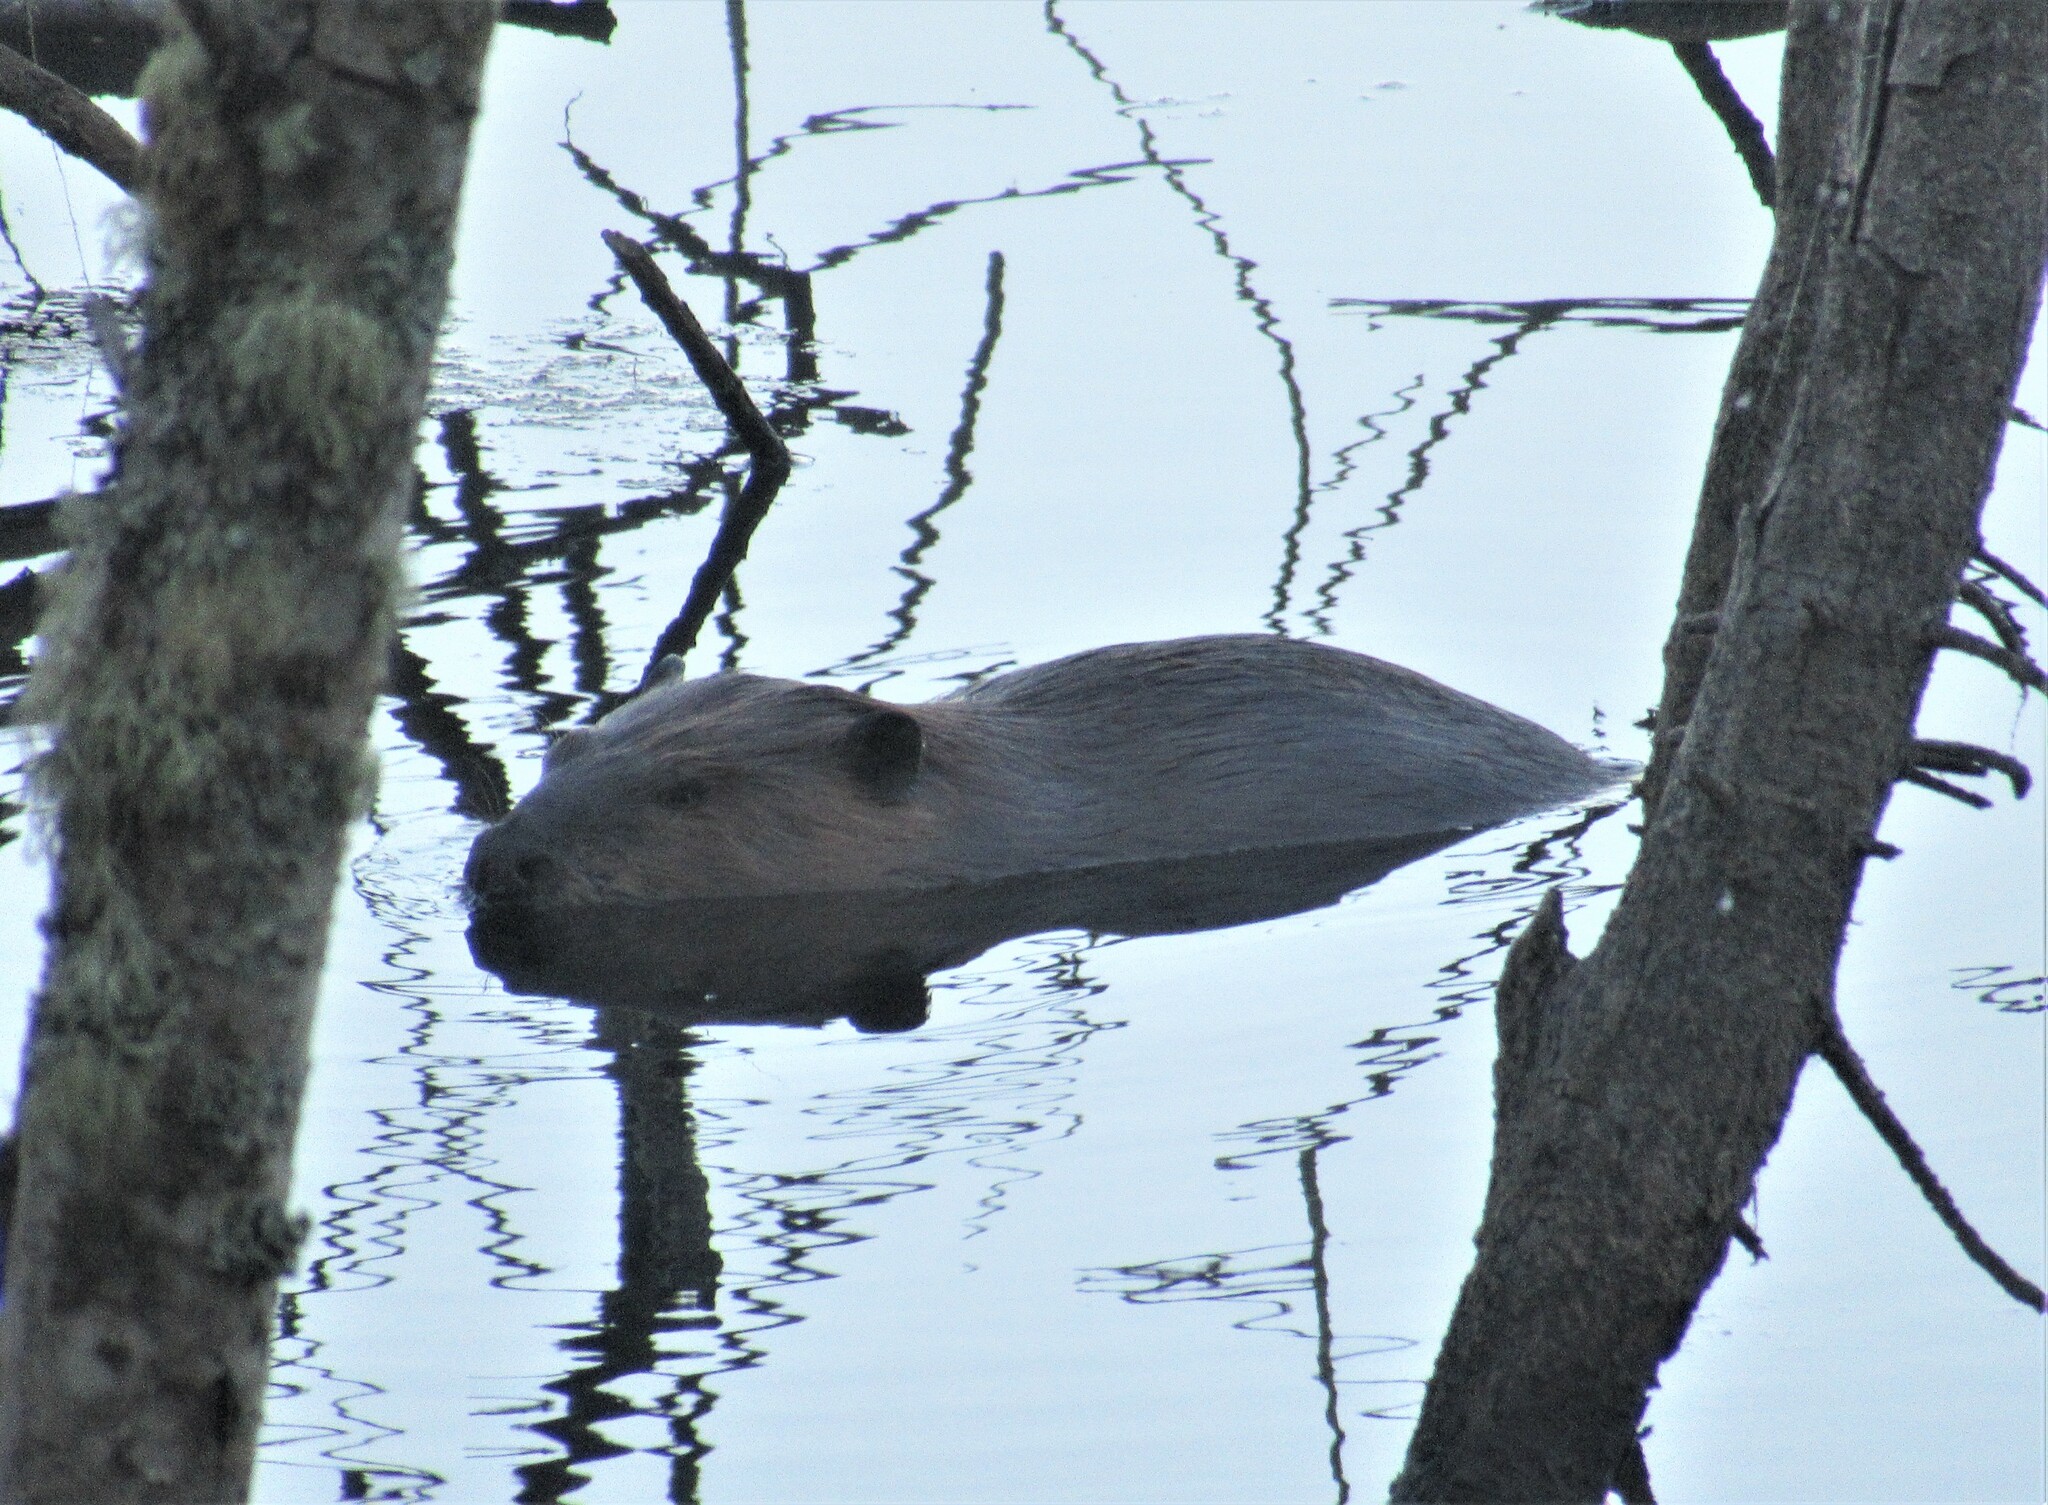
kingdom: Animalia
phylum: Chordata
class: Mammalia
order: Rodentia
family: Castoridae
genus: Castor
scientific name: Castor canadensis
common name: American beaver
